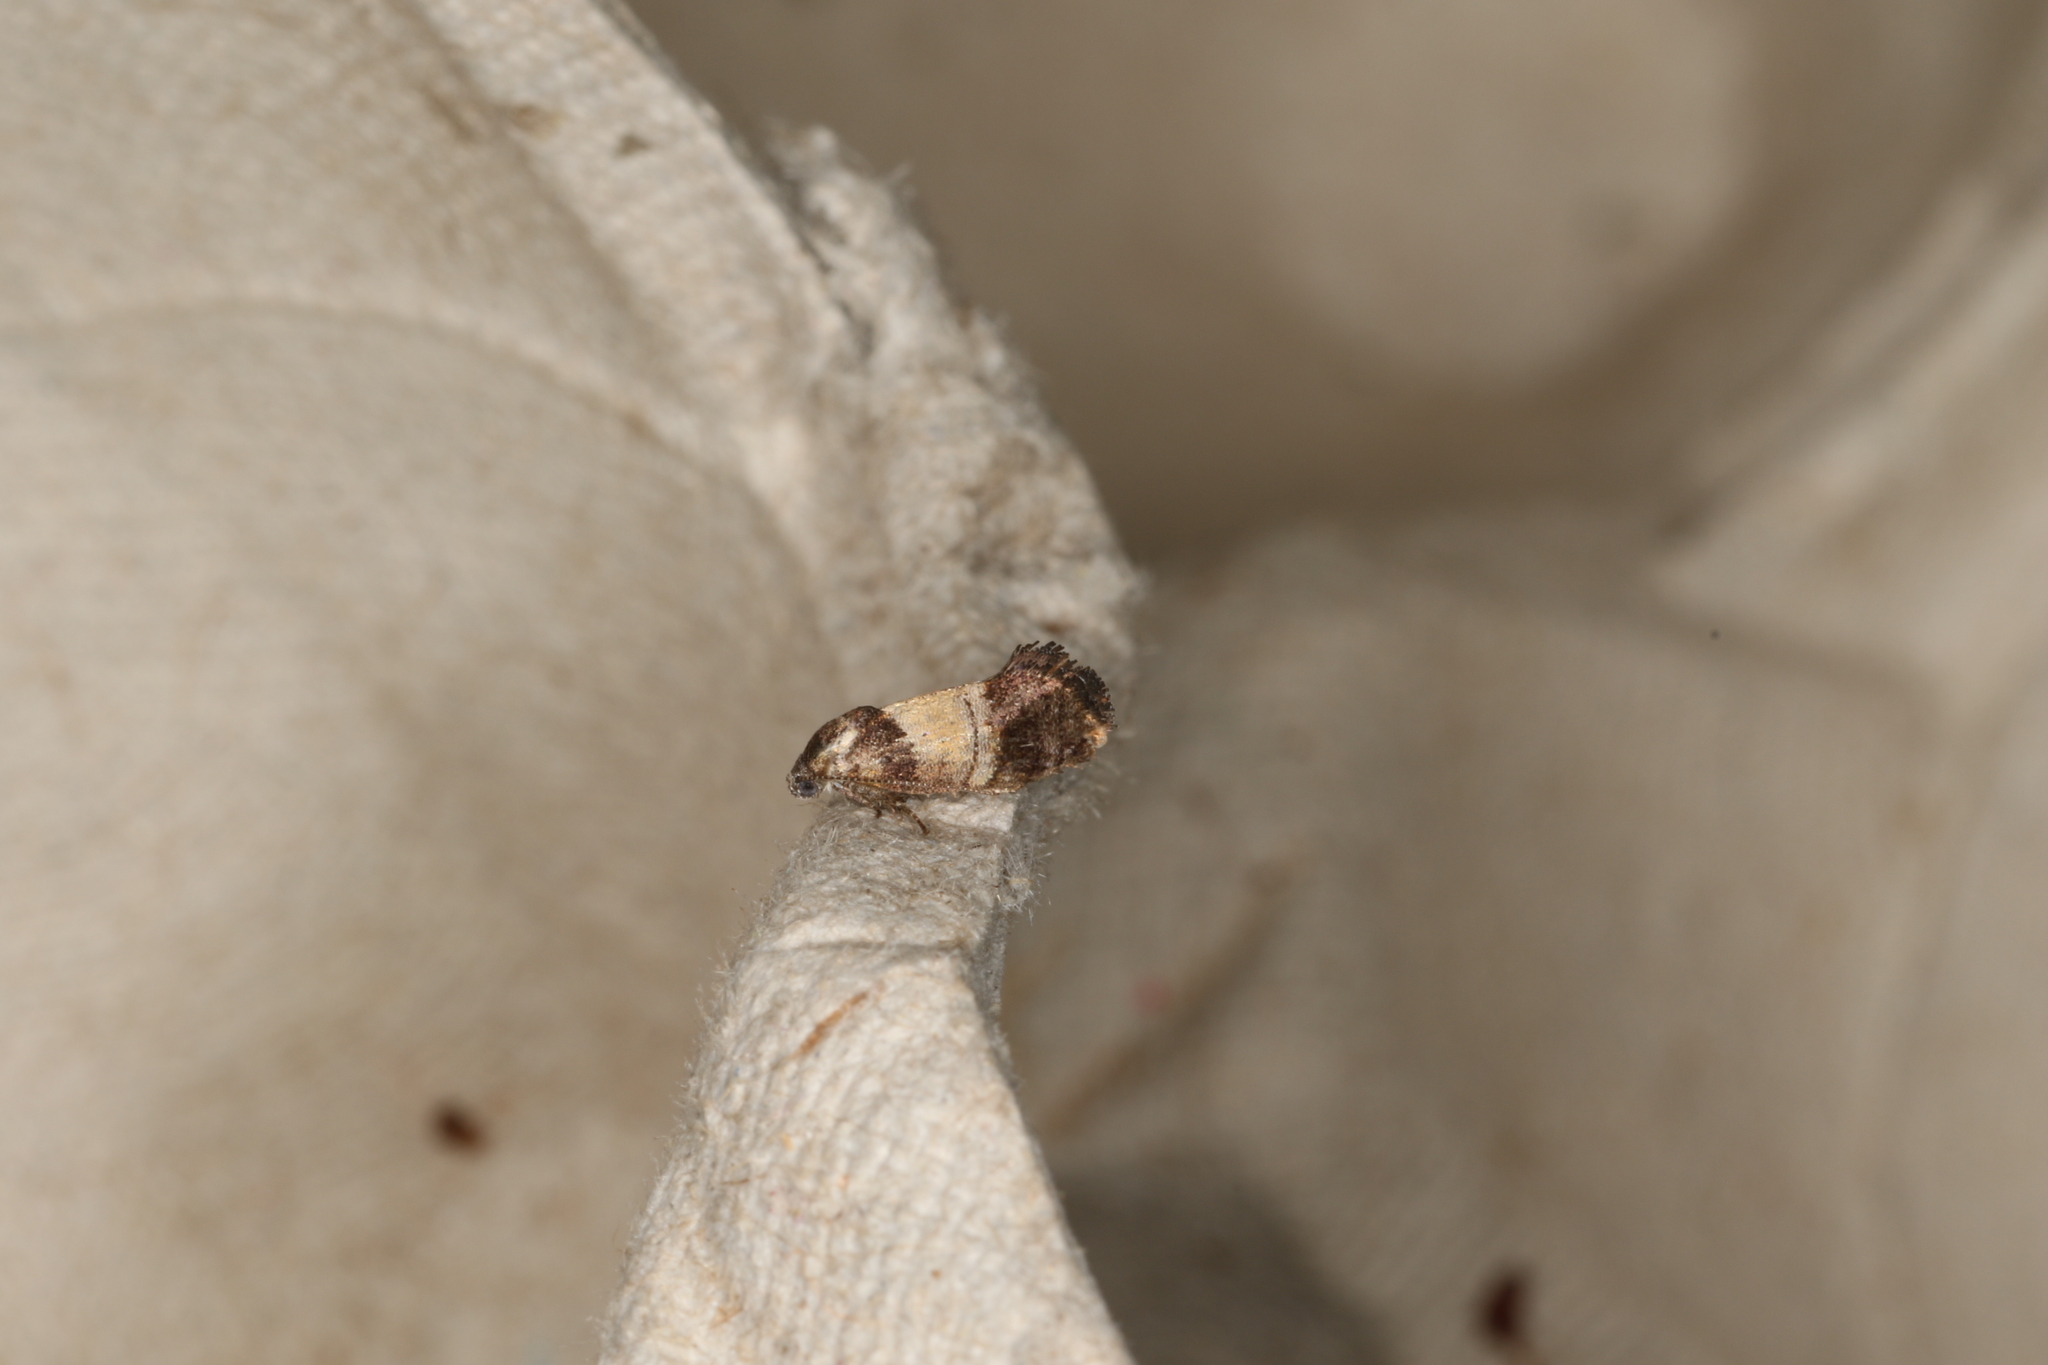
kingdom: Animalia
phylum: Arthropoda
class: Insecta
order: Lepidoptera
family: Depressariidae
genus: Eupselia
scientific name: Eupselia axiepaena
